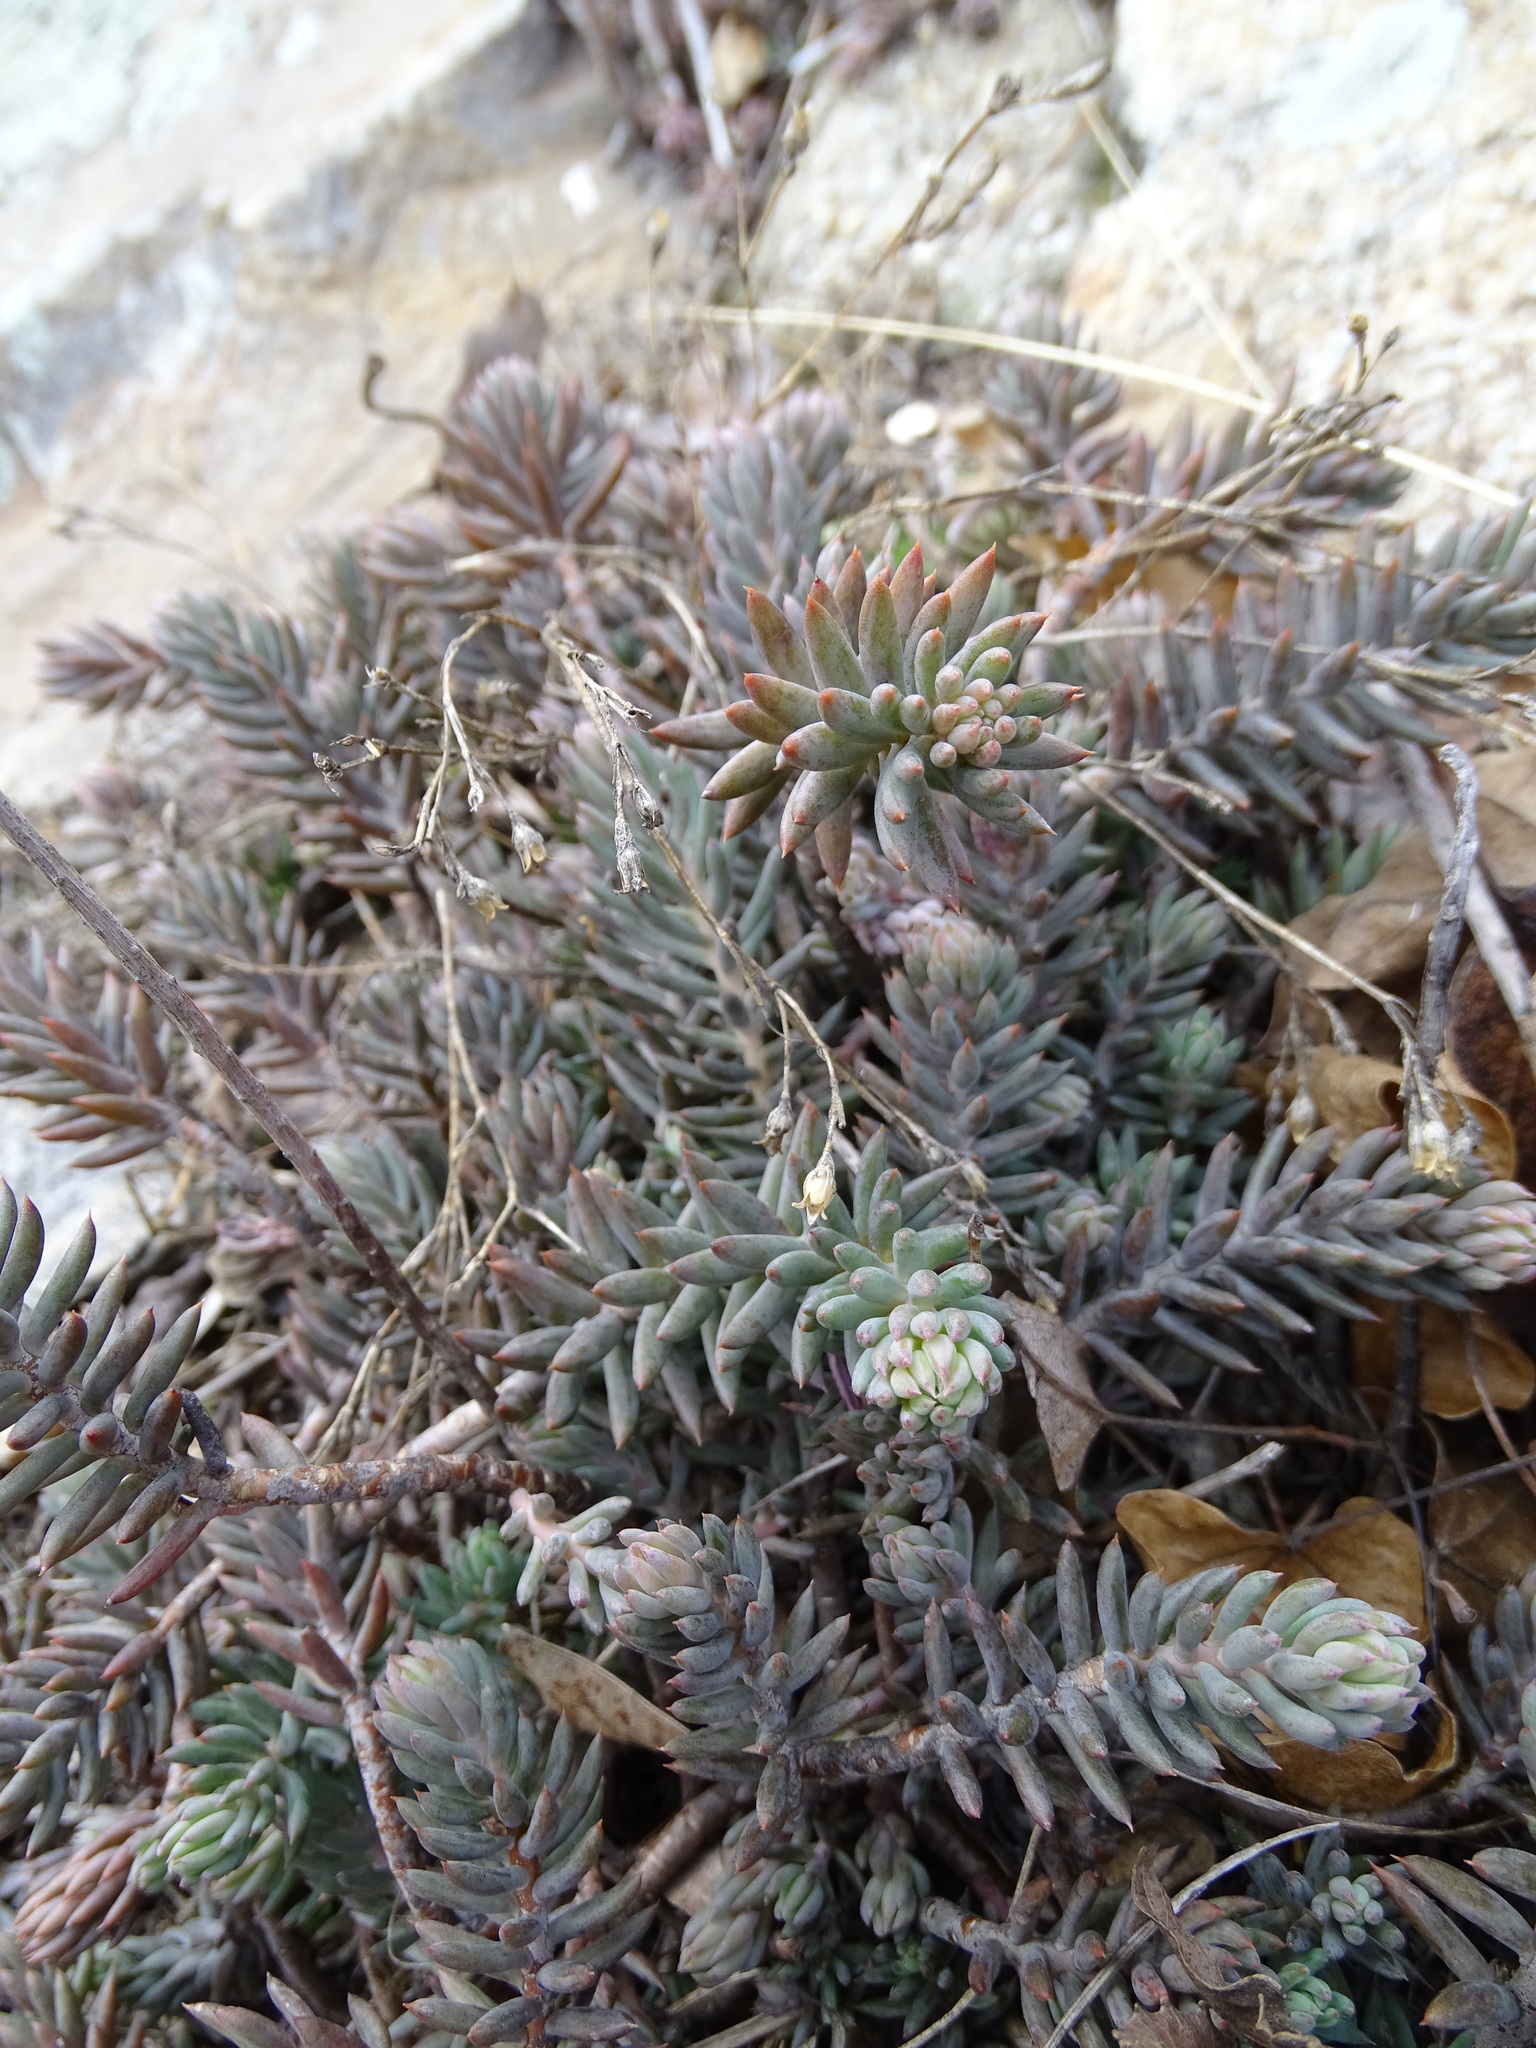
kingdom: Plantae
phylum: Tracheophyta
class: Magnoliopsida
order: Saxifragales
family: Crassulaceae
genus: Petrosedum
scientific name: Petrosedum
